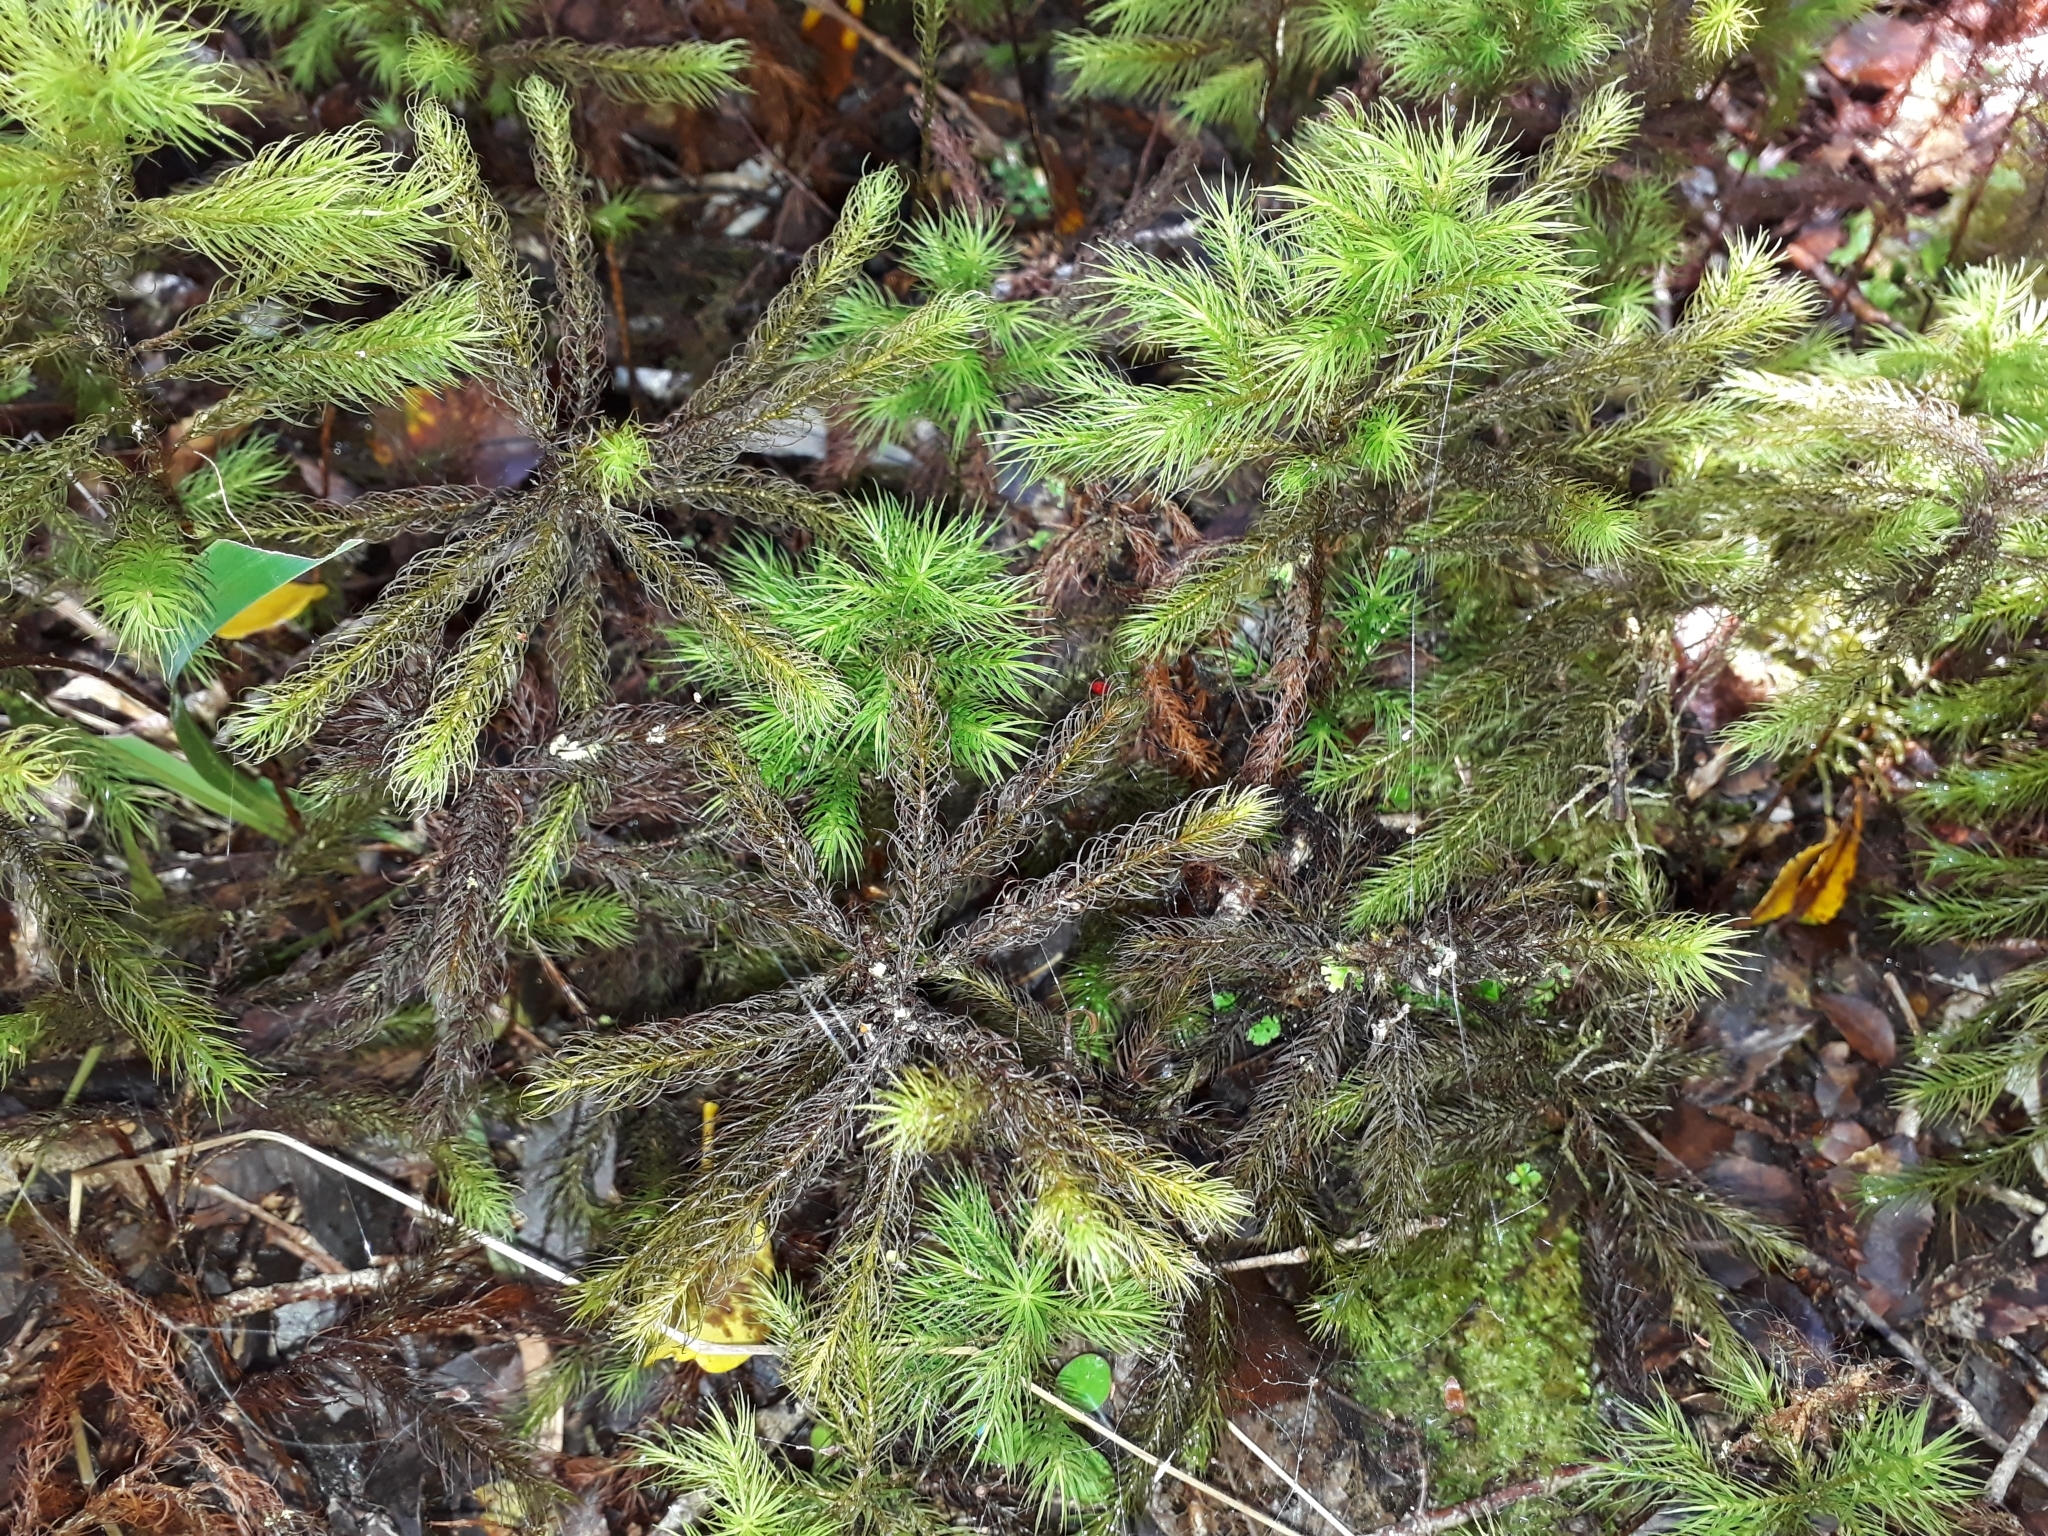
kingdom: Plantae
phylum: Bryophyta
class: Polytrichopsida
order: Polytrichales
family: Polytrichaceae
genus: Dendroligotrichum
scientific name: Dendroligotrichum tongariroense
